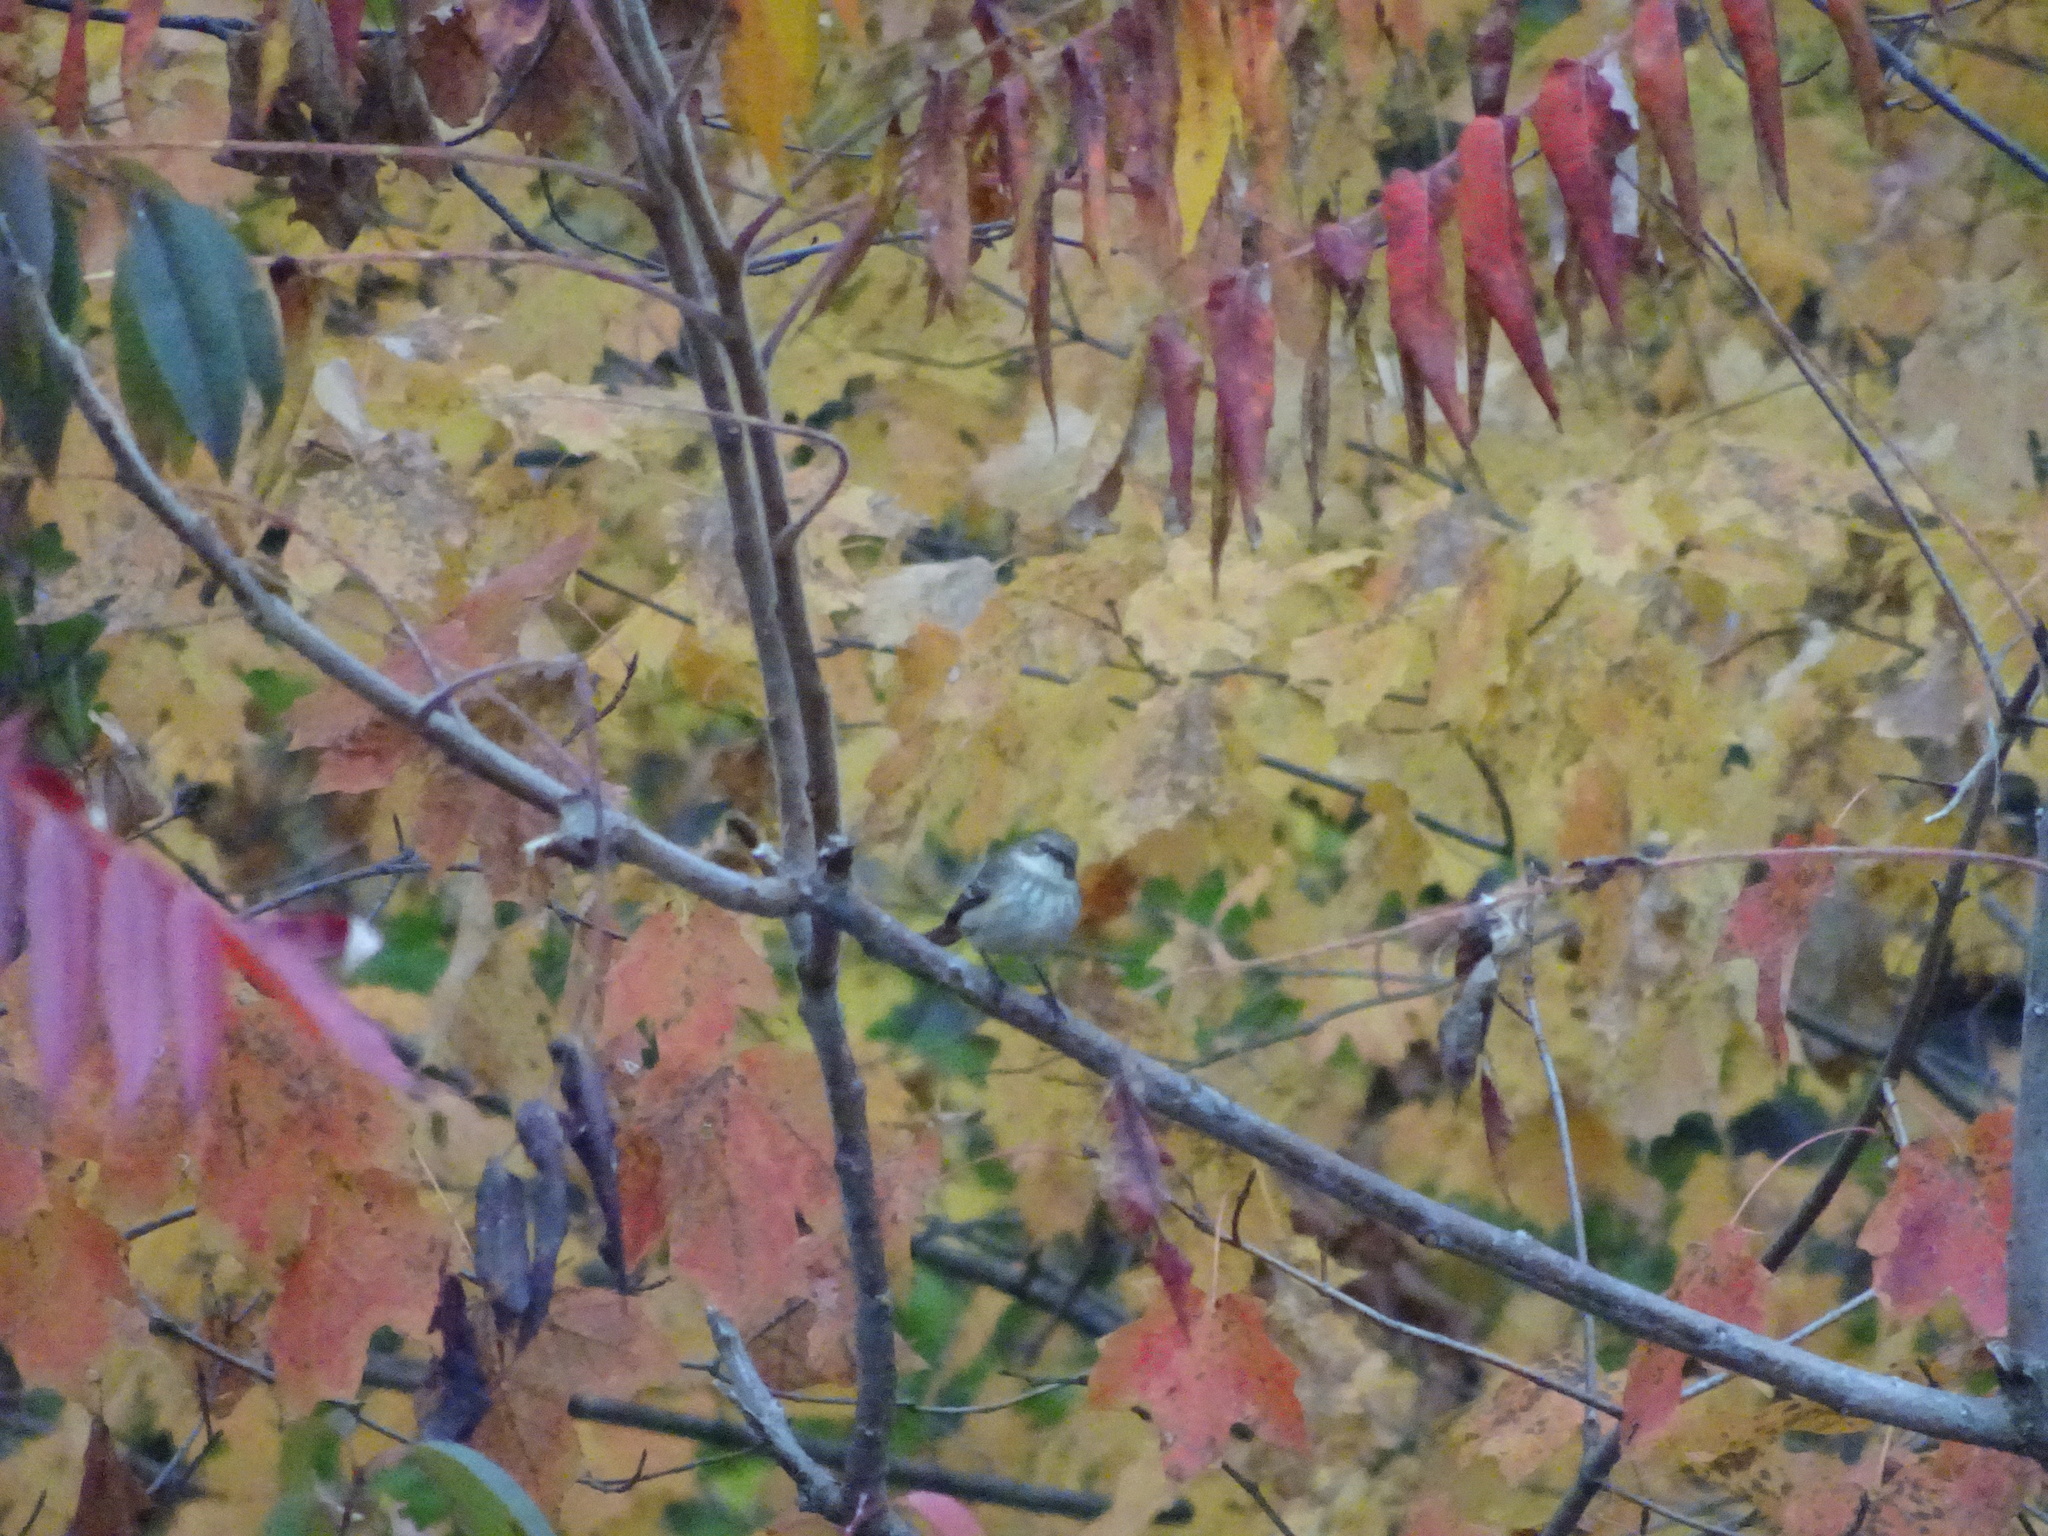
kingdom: Animalia
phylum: Chordata
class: Aves
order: Passeriformes
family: Parulidae
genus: Setophaga
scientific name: Setophaga coronata
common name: Myrtle warbler
